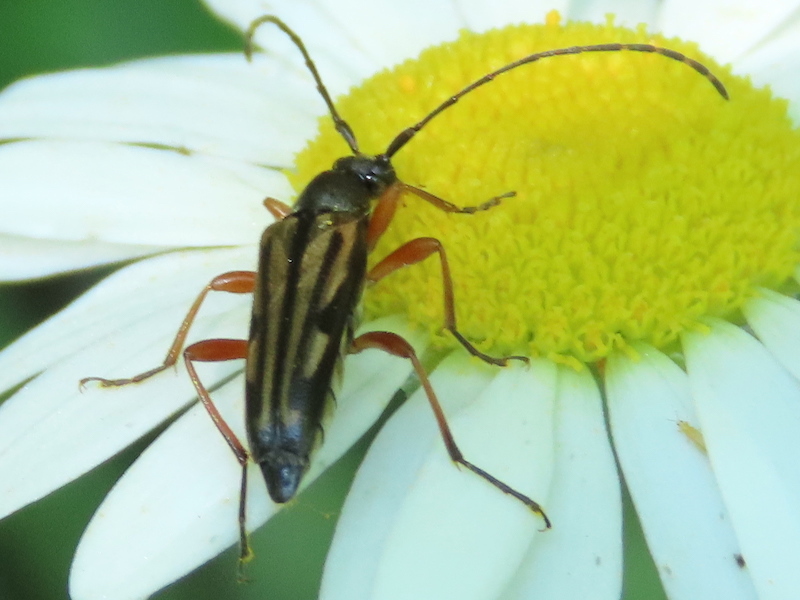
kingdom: Animalia
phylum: Arthropoda
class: Insecta
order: Coleoptera
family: Cerambycidae
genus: Analeptura
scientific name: Analeptura lineola
